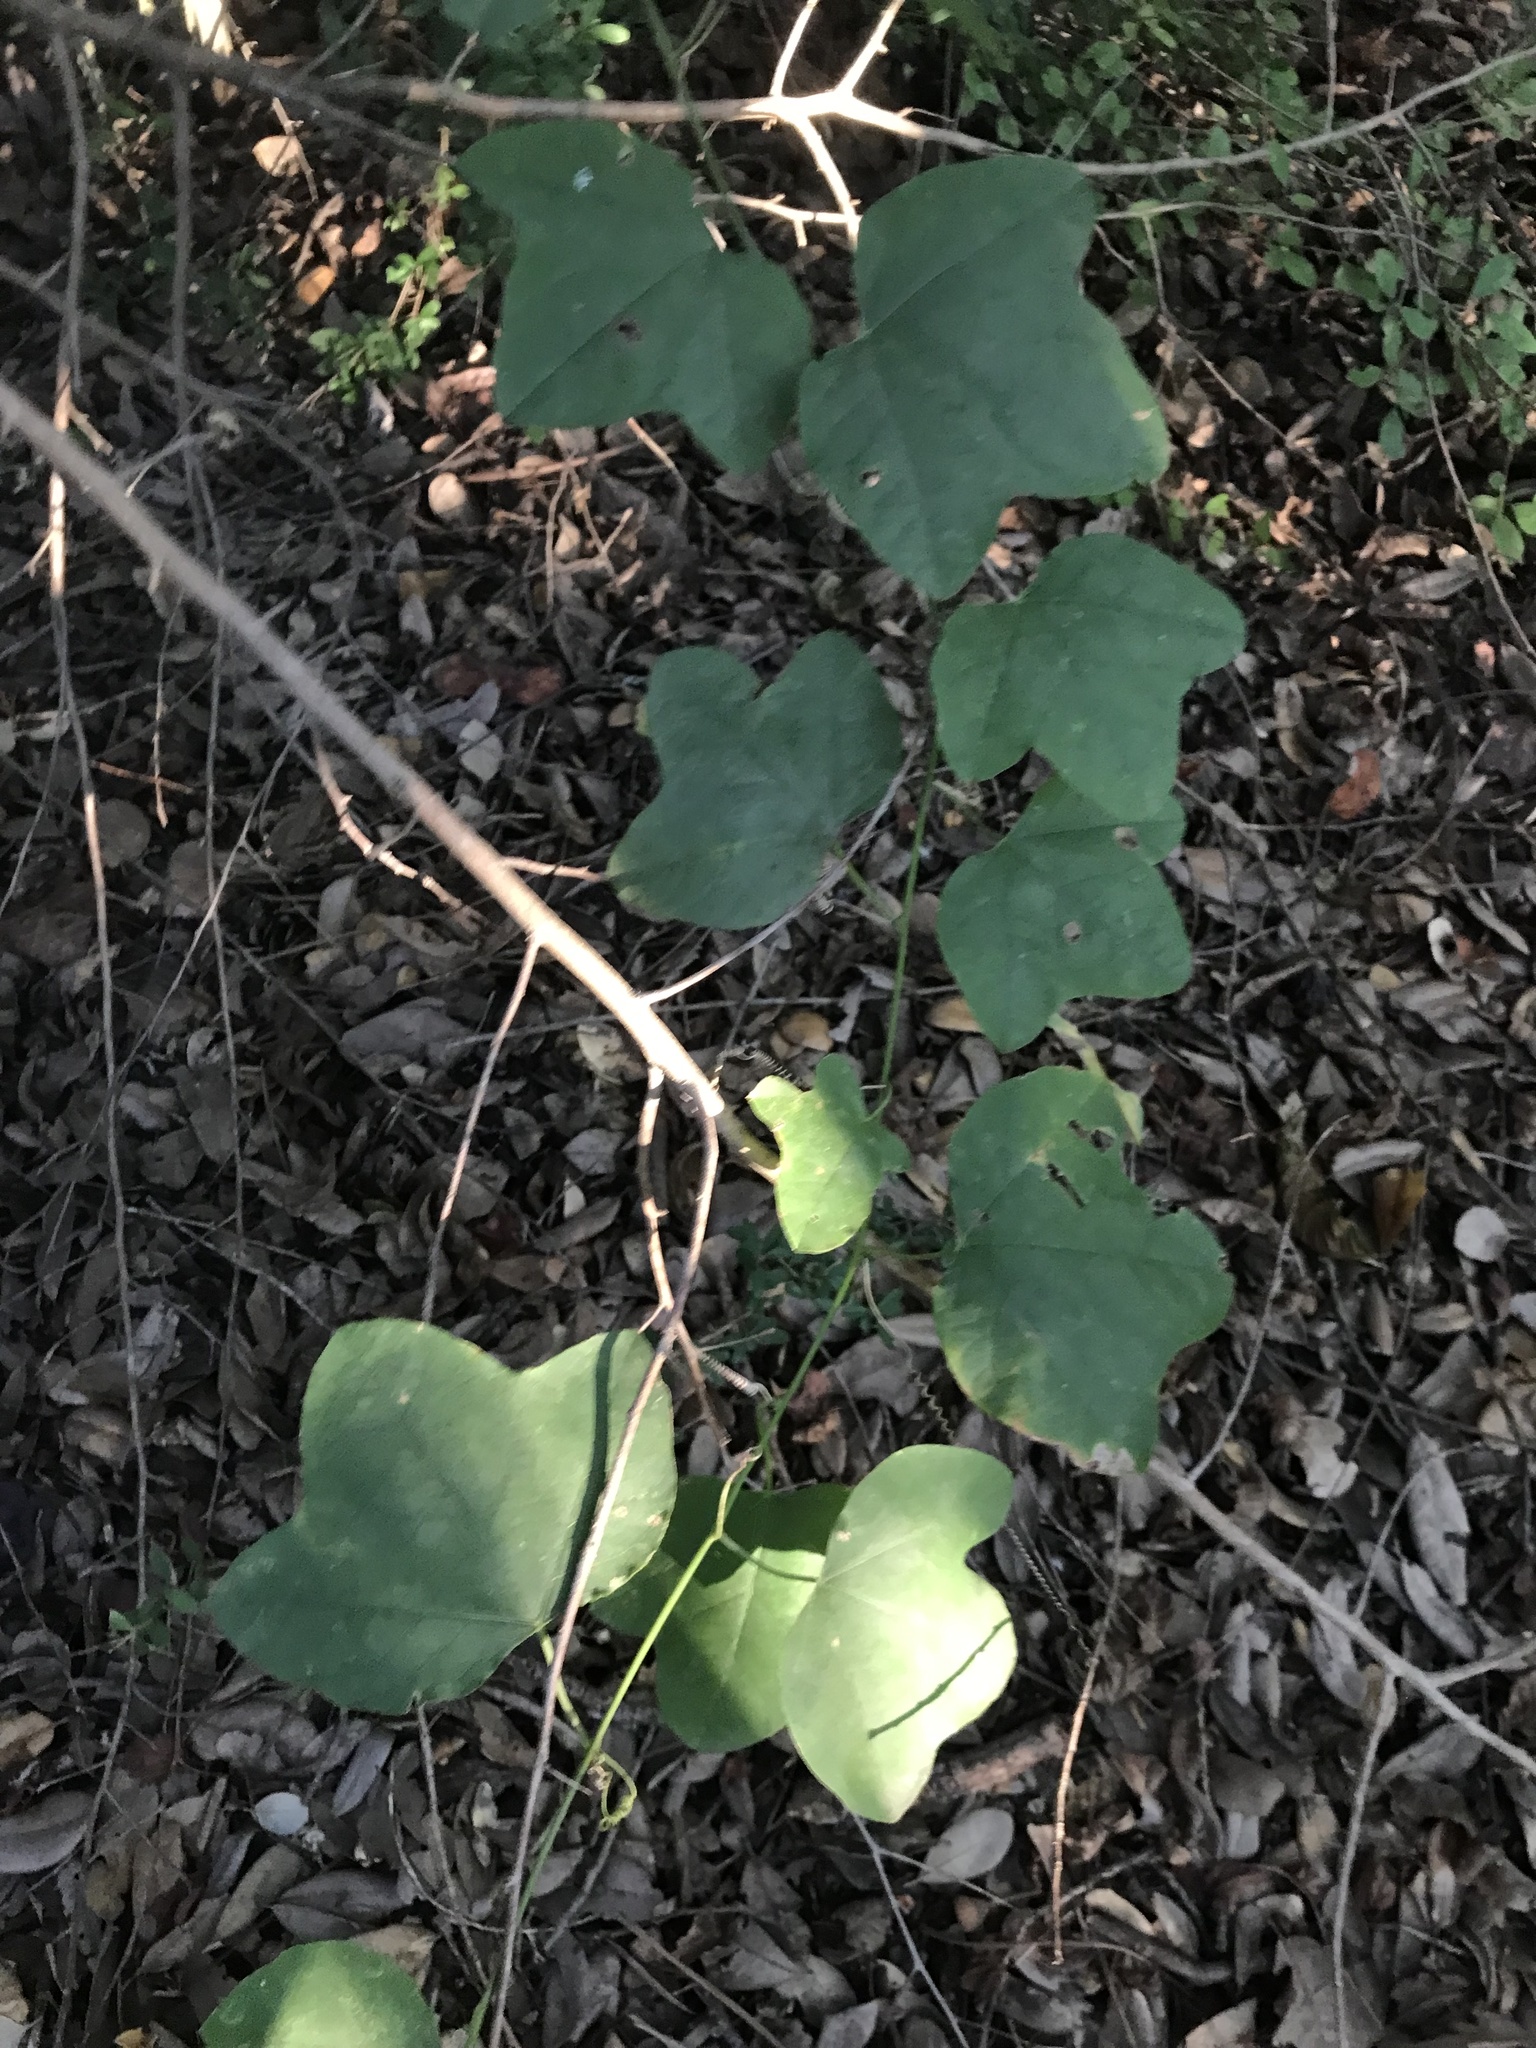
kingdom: Plantae
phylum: Tracheophyta
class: Magnoliopsida
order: Malpighiales
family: Passifloraceae
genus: Passiflora
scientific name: Passiflora lutea
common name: Yellow passionflower
